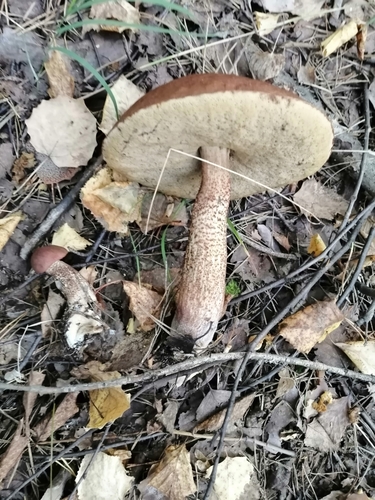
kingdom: Fungi
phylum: Basidiomycota
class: Agaricomycetes
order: Boletales
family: Boletaceae
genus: Leccinum
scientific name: Leccinum aurantiacum
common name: Orange bolete
